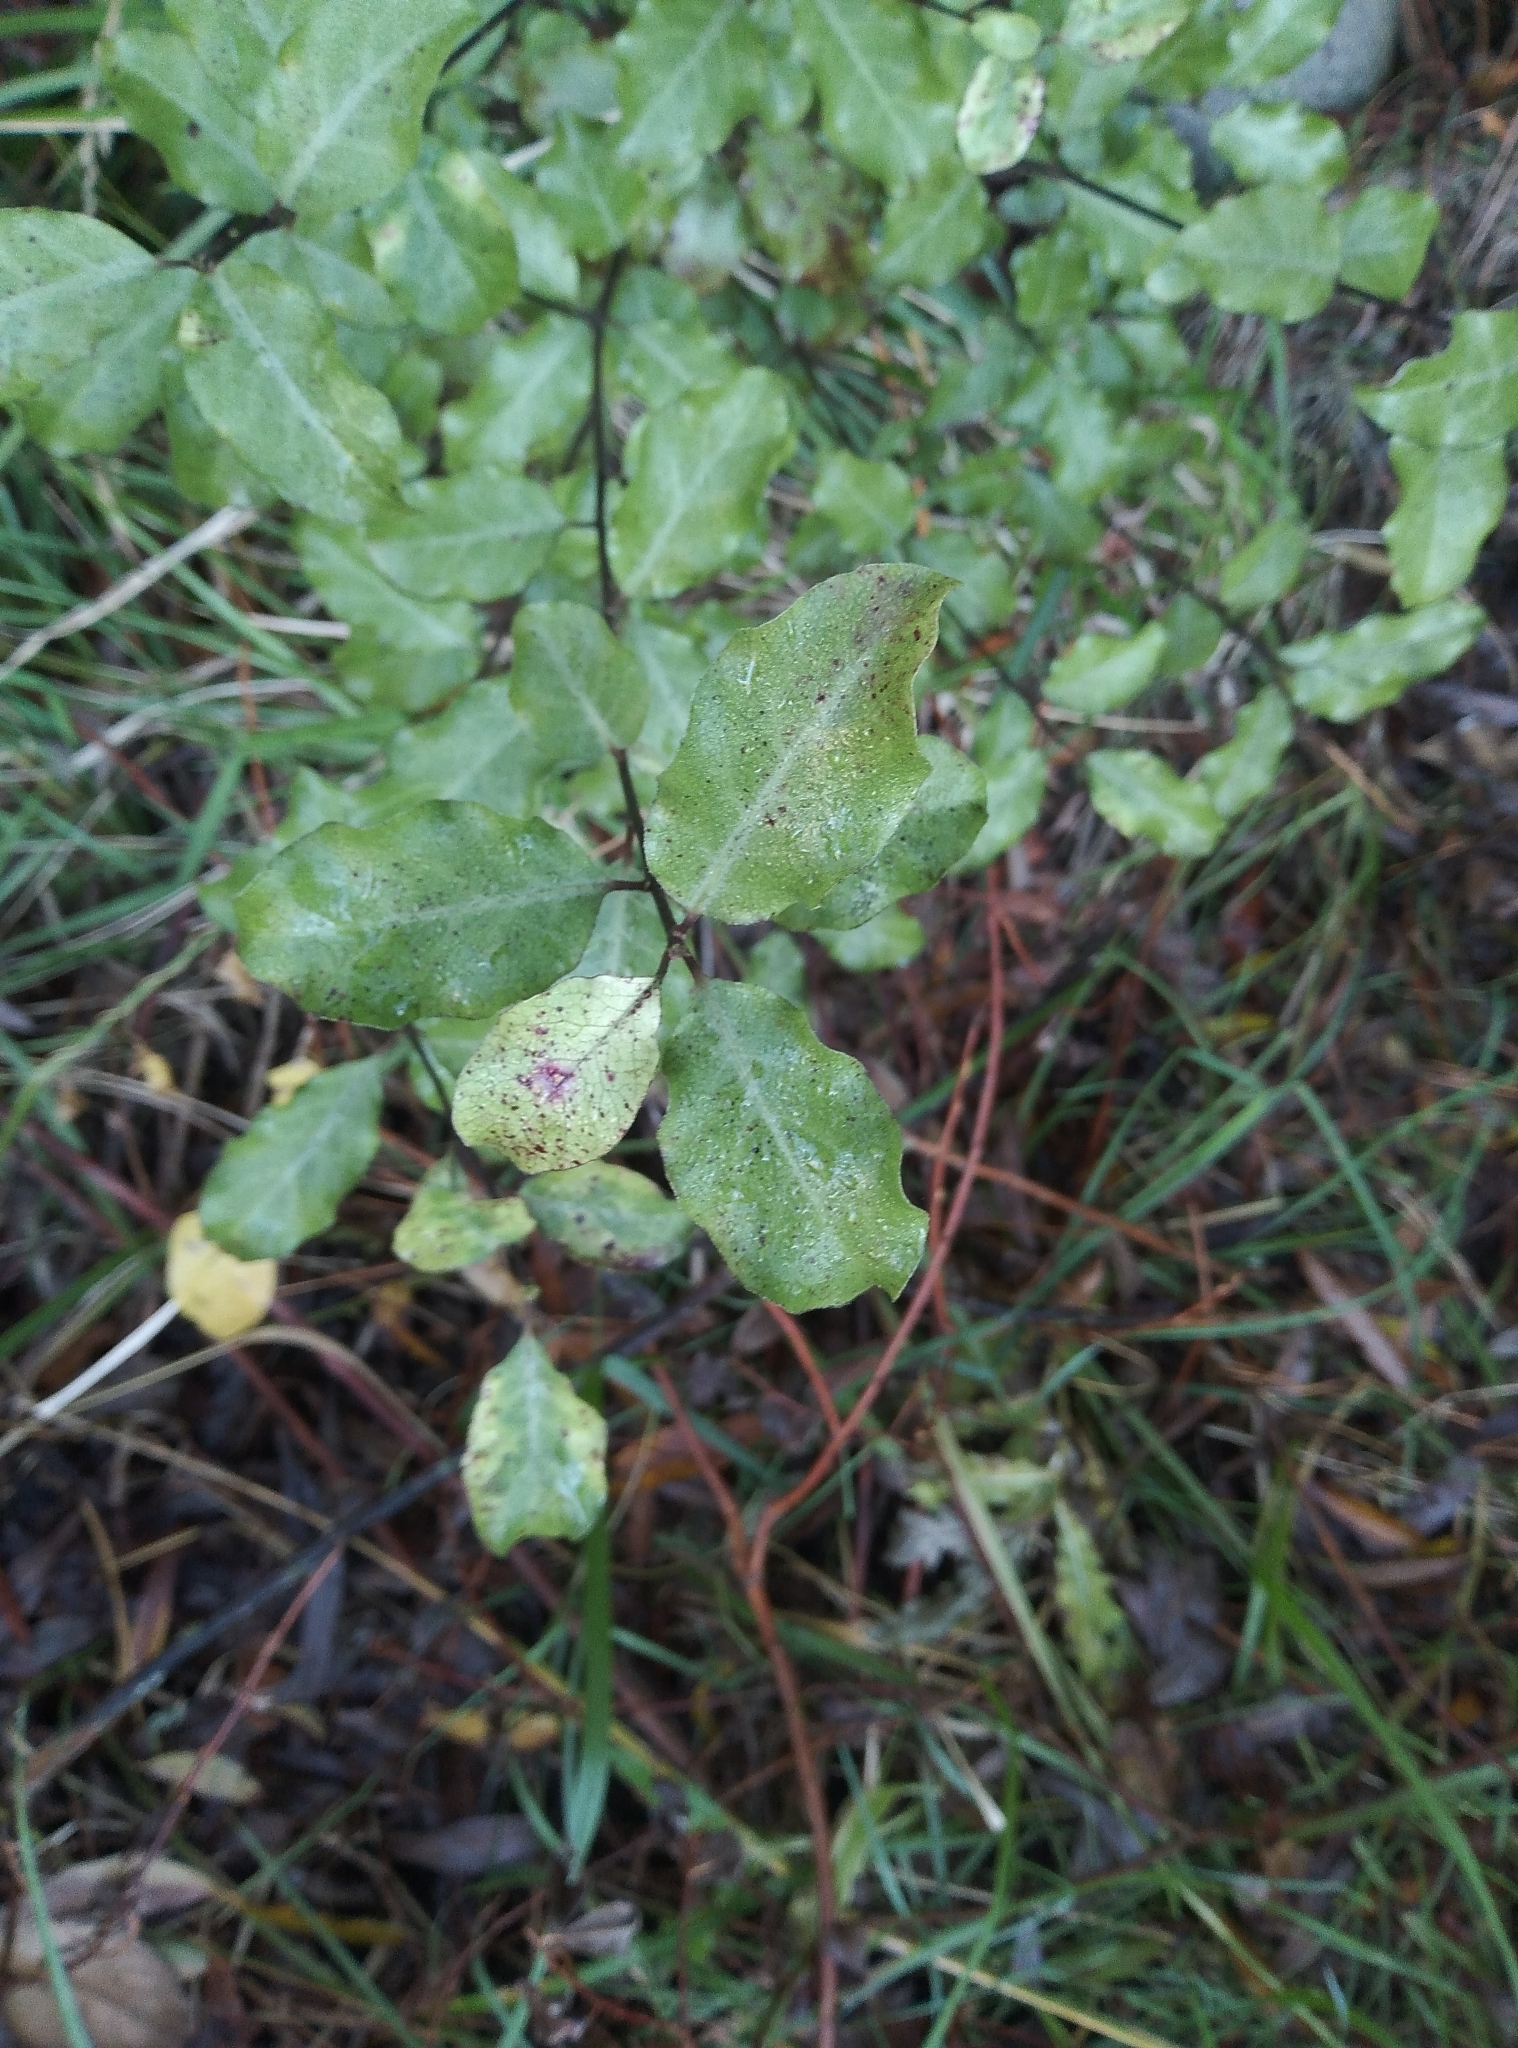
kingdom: Plantae
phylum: Tracheophyta
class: Magnoliopsida
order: Apiales
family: Pittosporaceae
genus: Pittosporum
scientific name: Pittosporum tenuifolium
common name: Kohuhu
